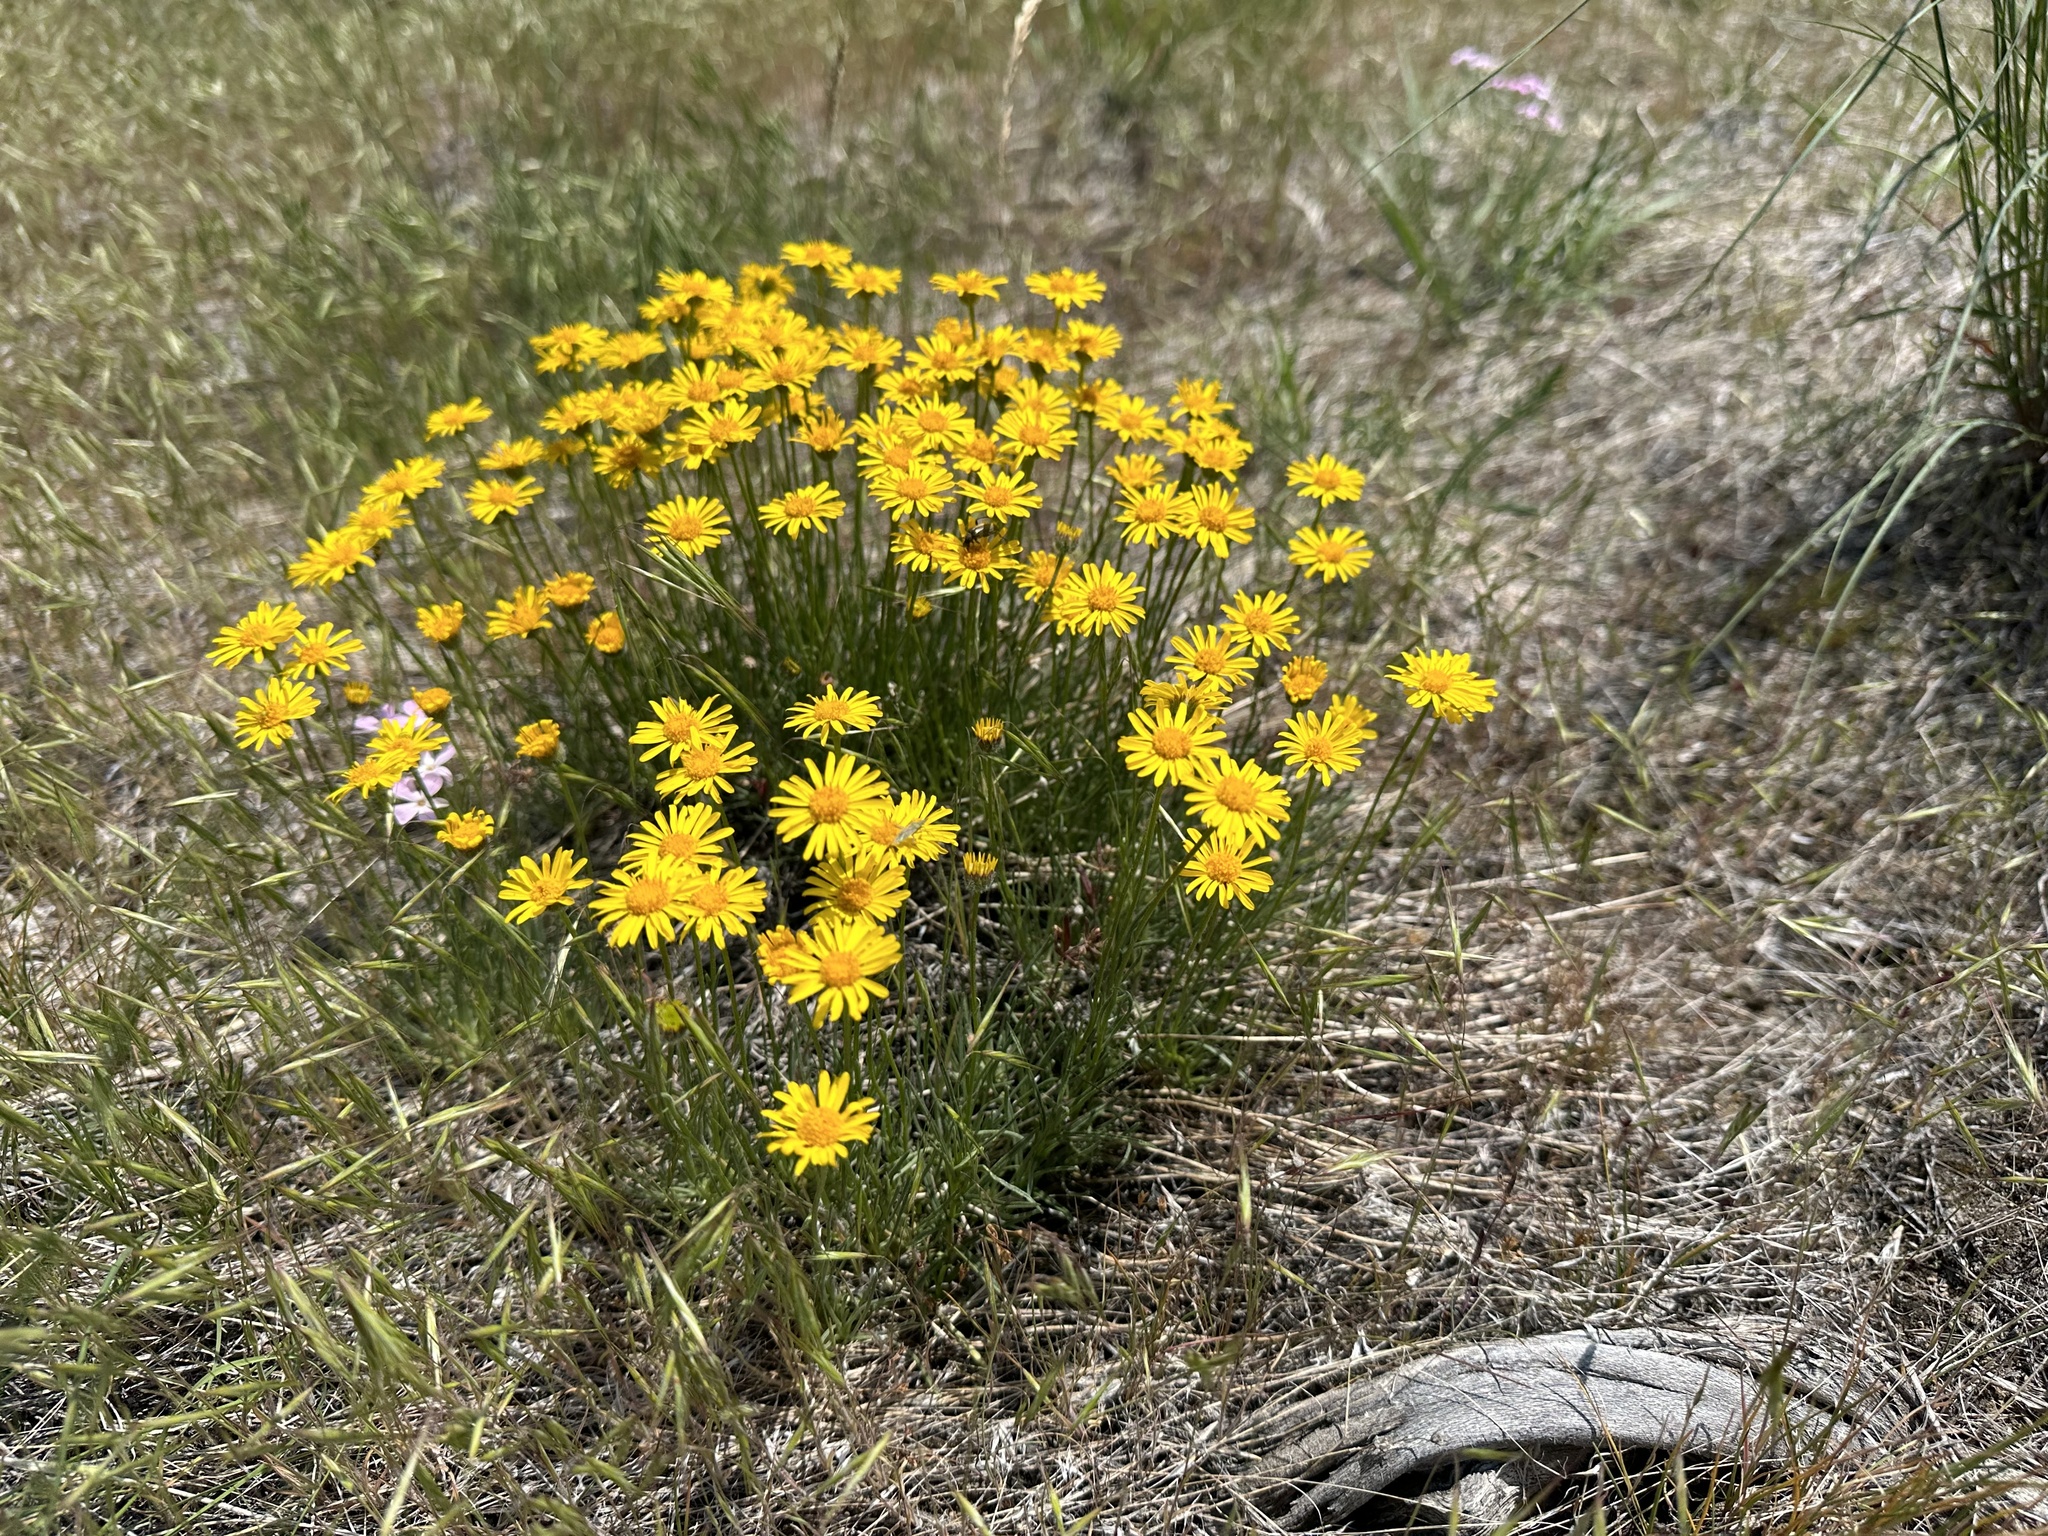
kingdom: Plantae
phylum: Tracheophyta
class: Magnoliopsida
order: Asterales
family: Asteraceae
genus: Erigeron
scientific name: Erigeron linearis
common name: Desert yellow fleabane
